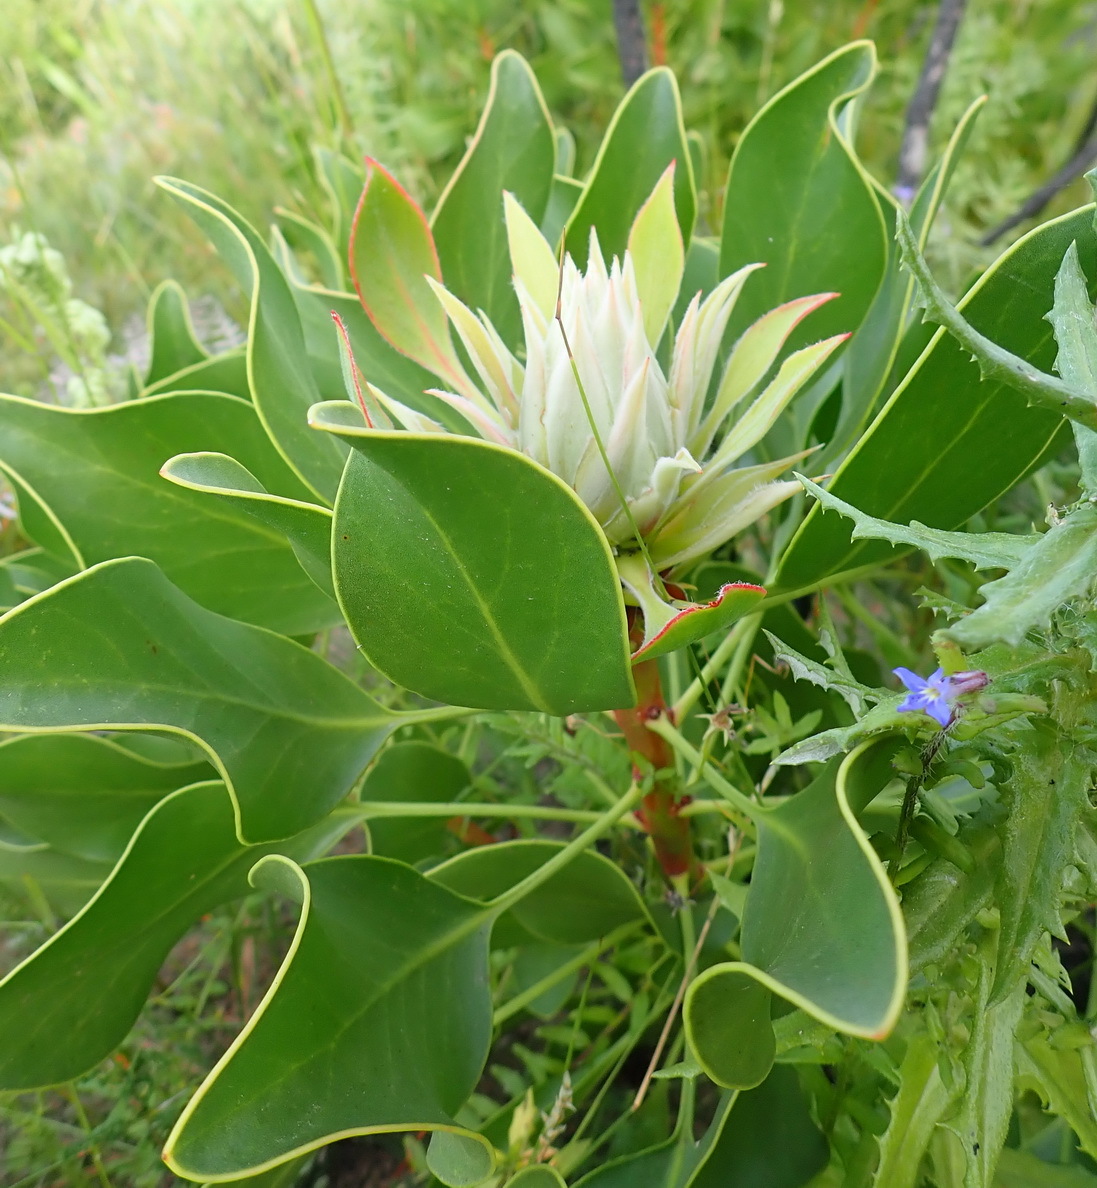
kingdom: Plantae
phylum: Tracheophyta
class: Magnoliopsida
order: Proteales
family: Proteaceae
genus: Protea
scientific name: Protea cynaroides
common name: King protea
